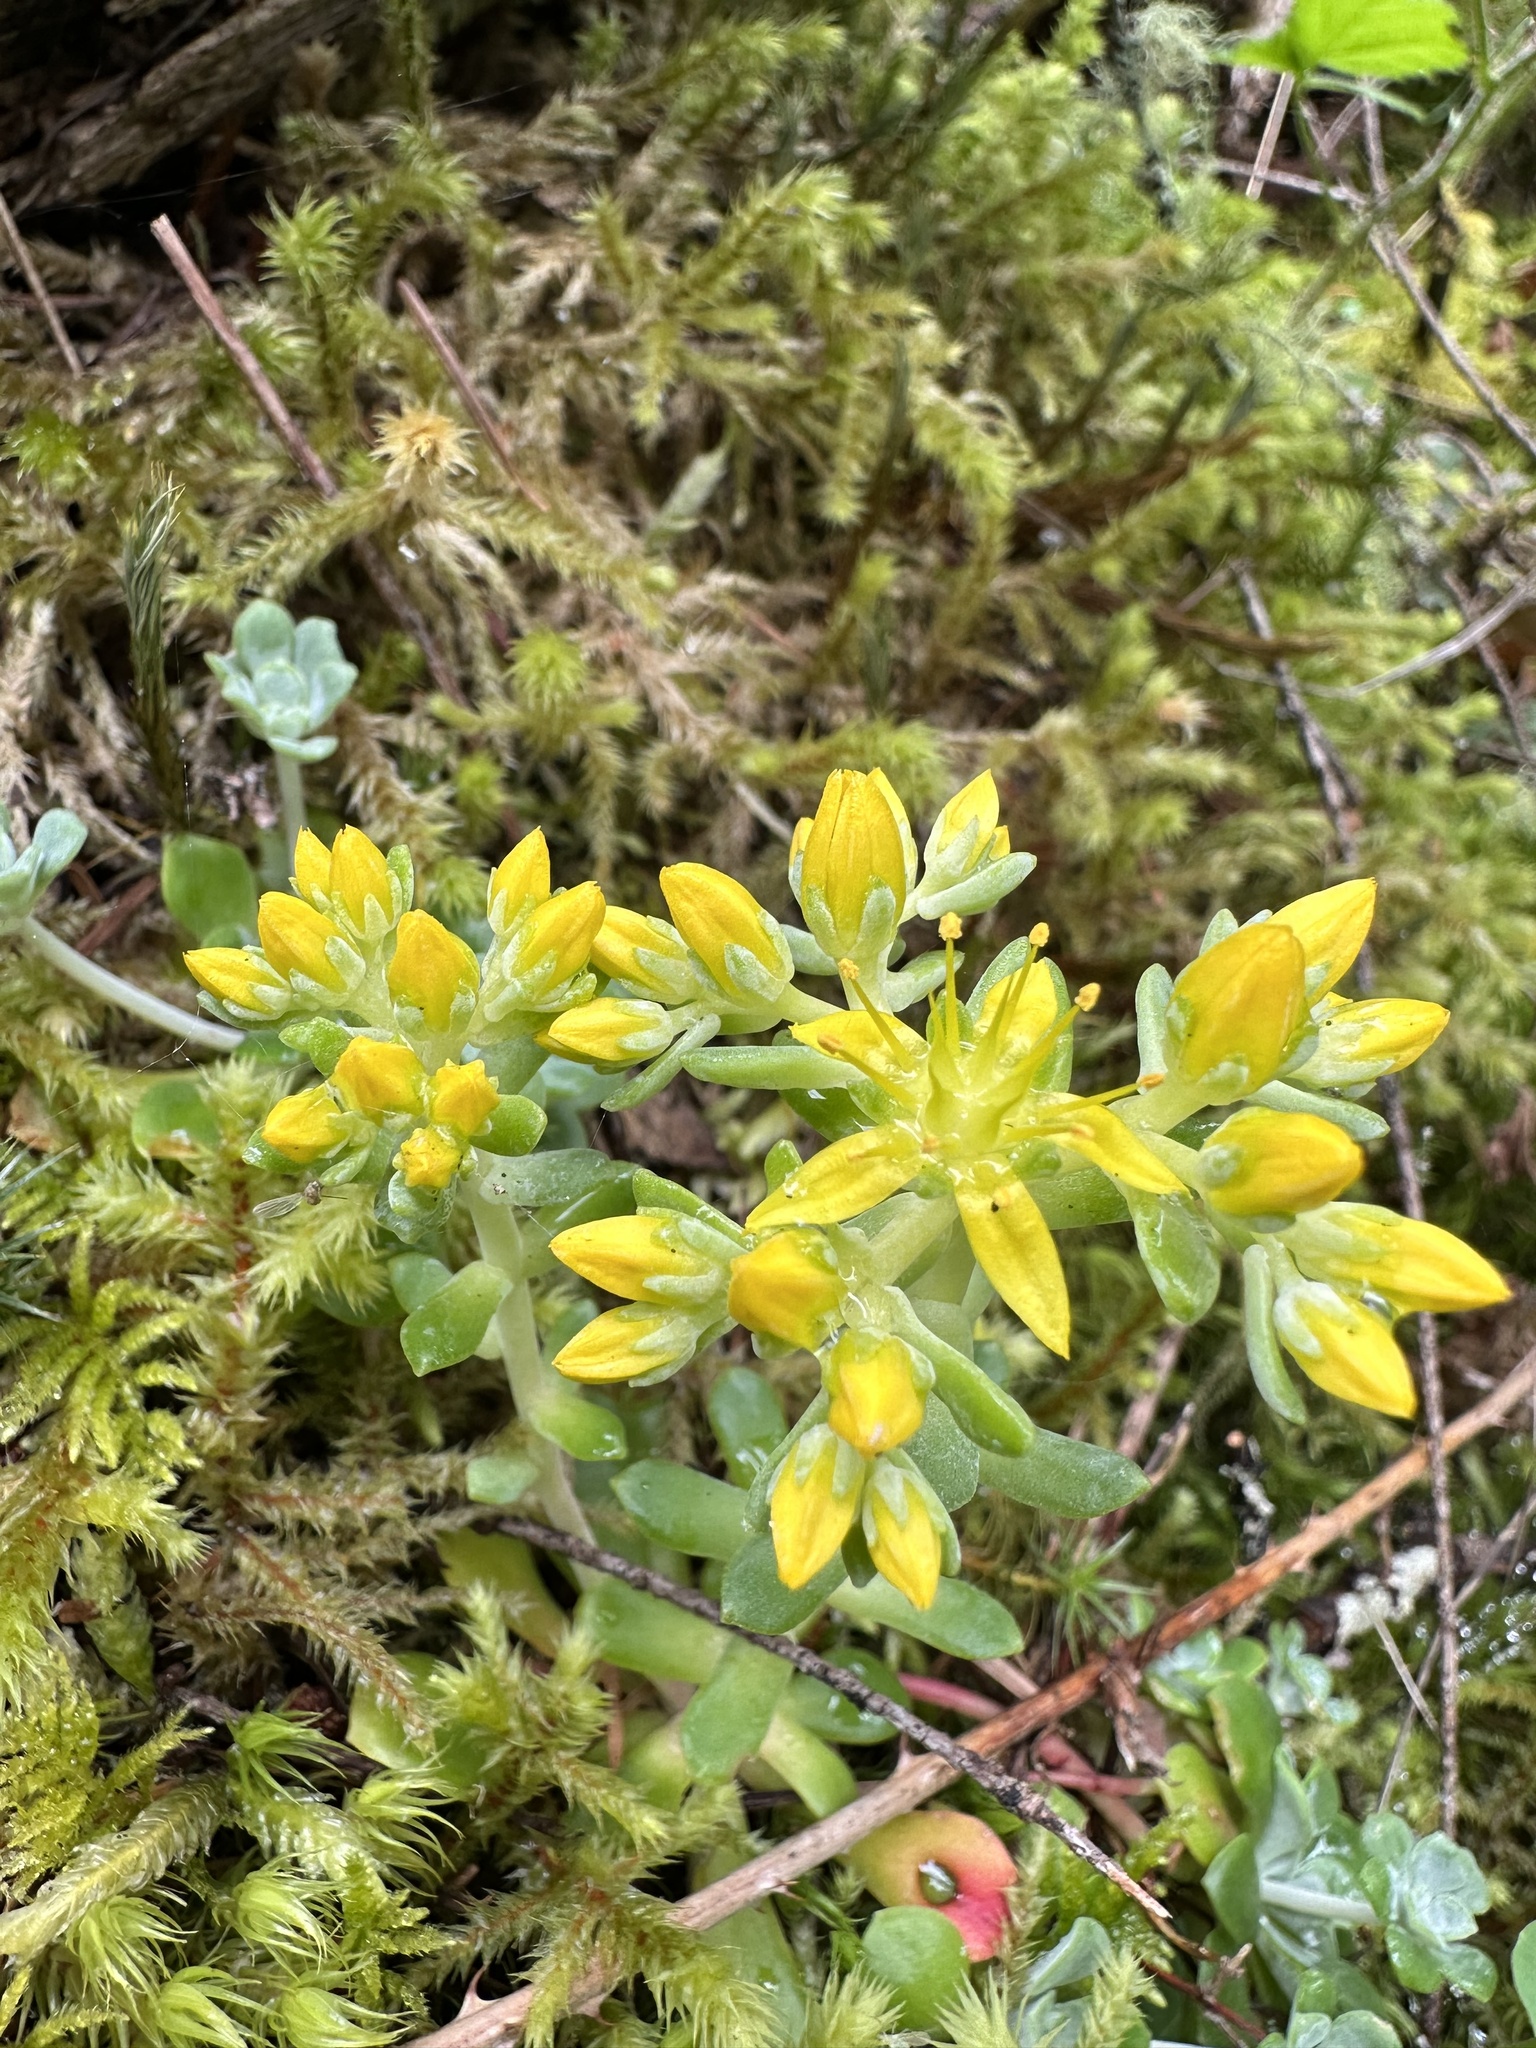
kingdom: Plantae
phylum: Tracheophyta
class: Magnoliopsida
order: Saxifragales
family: Crassulaceae
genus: Sedum
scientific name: Sedum spathulifolium
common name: Colorado stonecrop
